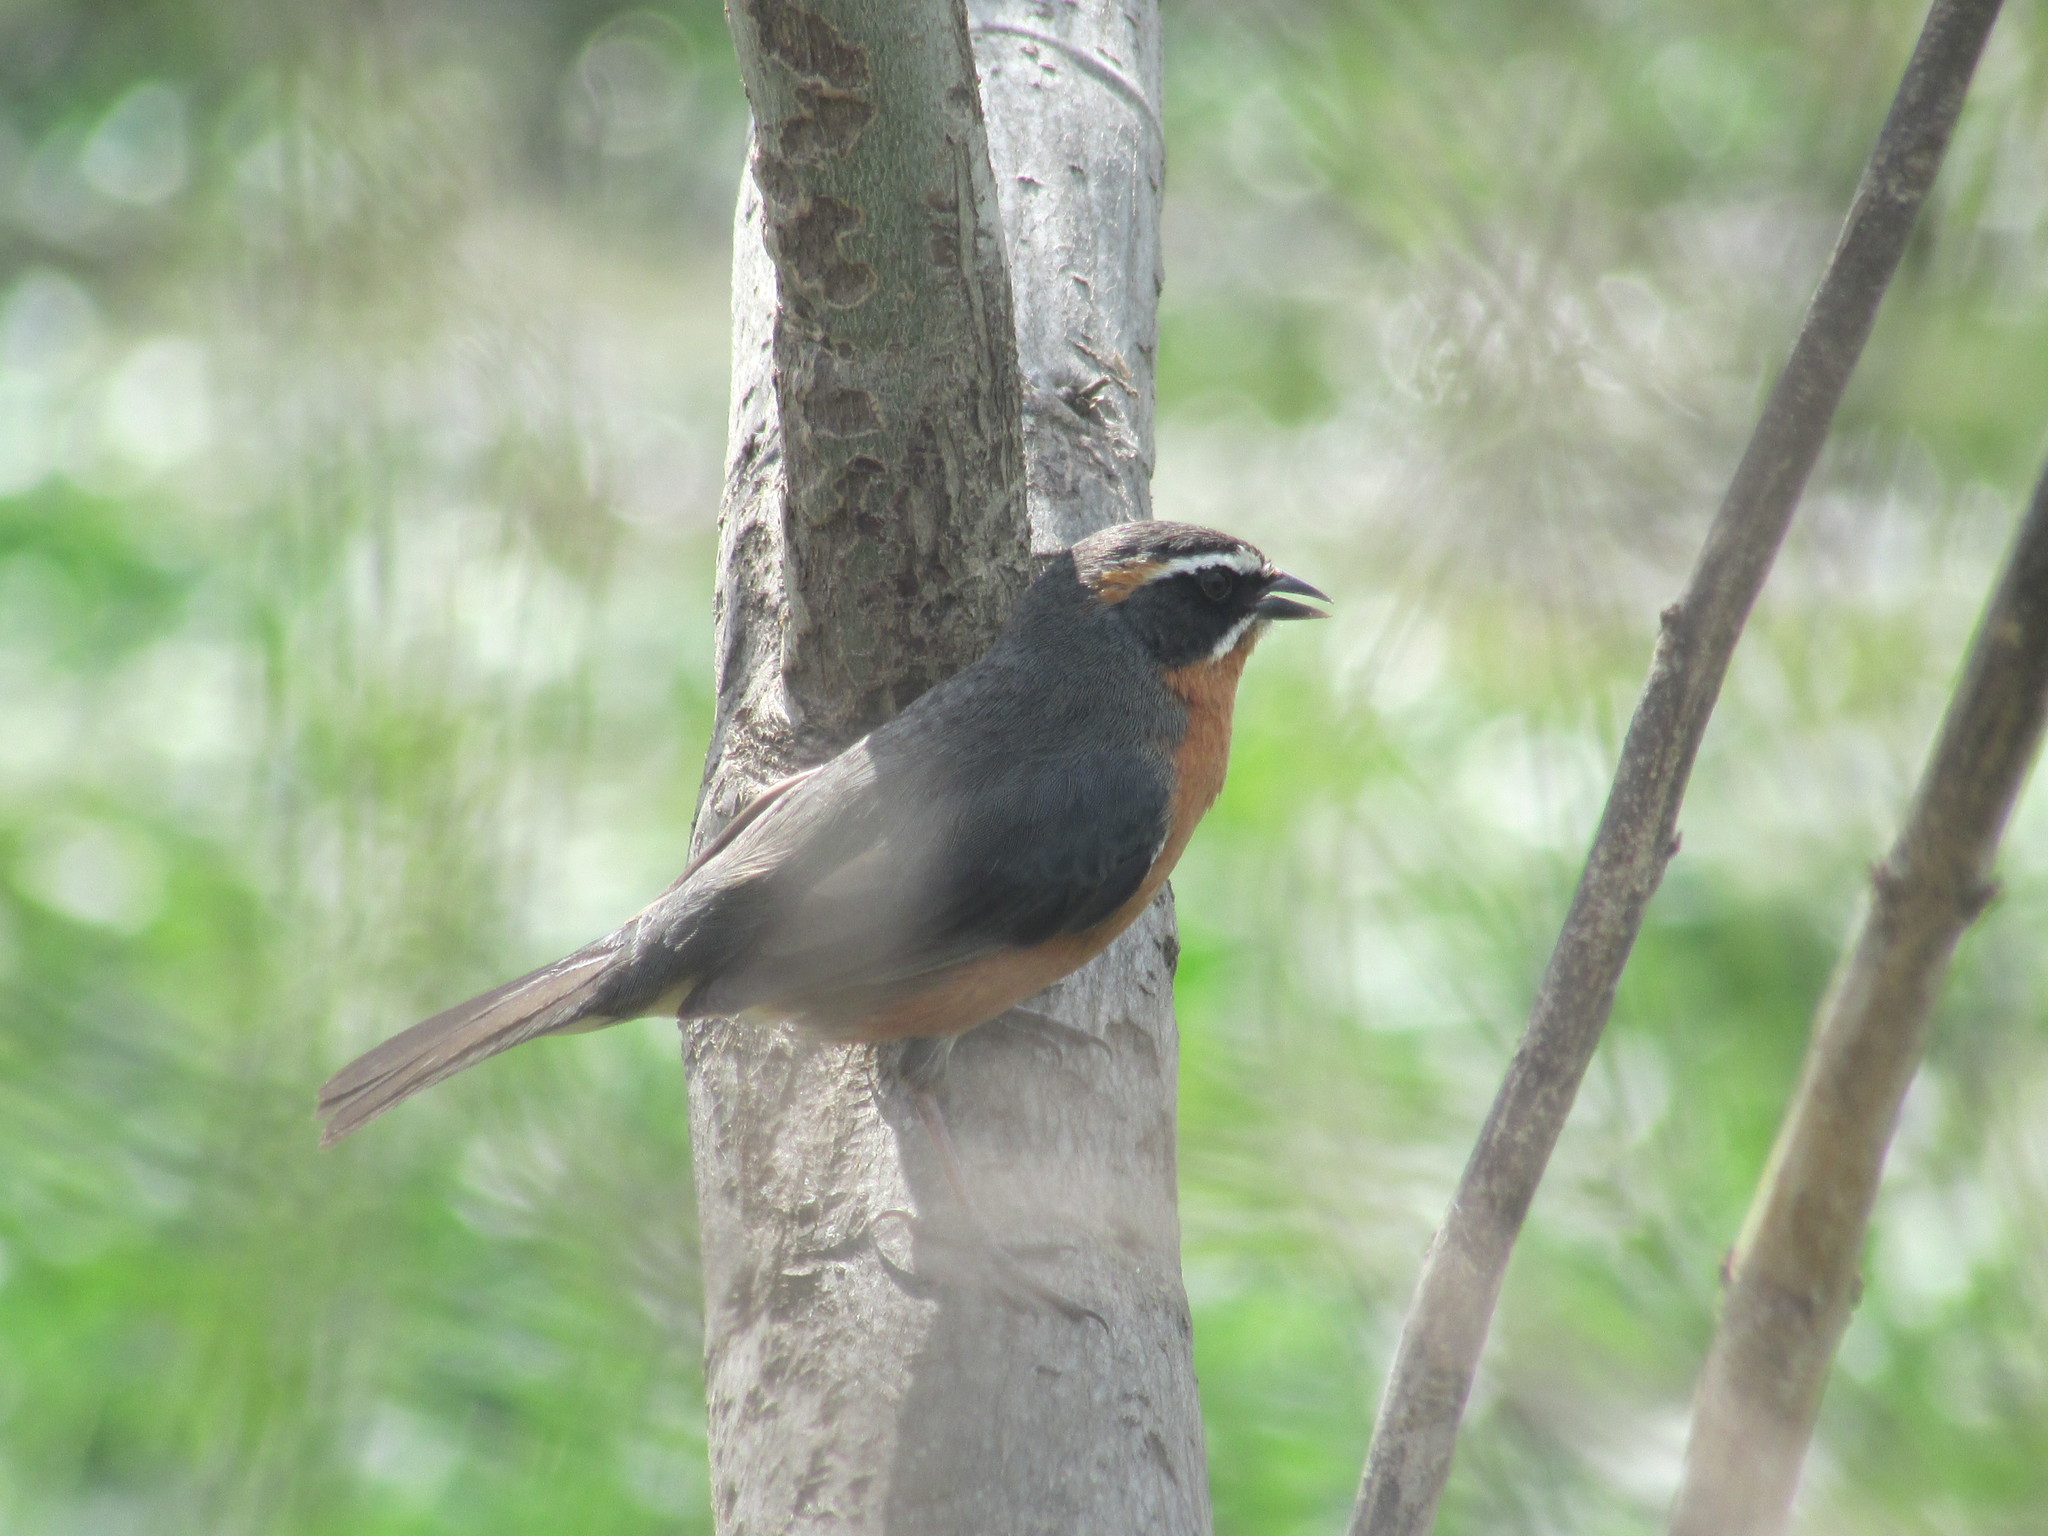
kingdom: Animalia
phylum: Chordata
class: Aves
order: Passeriformes
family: Thraupidae
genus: Poospiza
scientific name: Poospiza nigrorufa
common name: Black-and-rufous warbling finch
